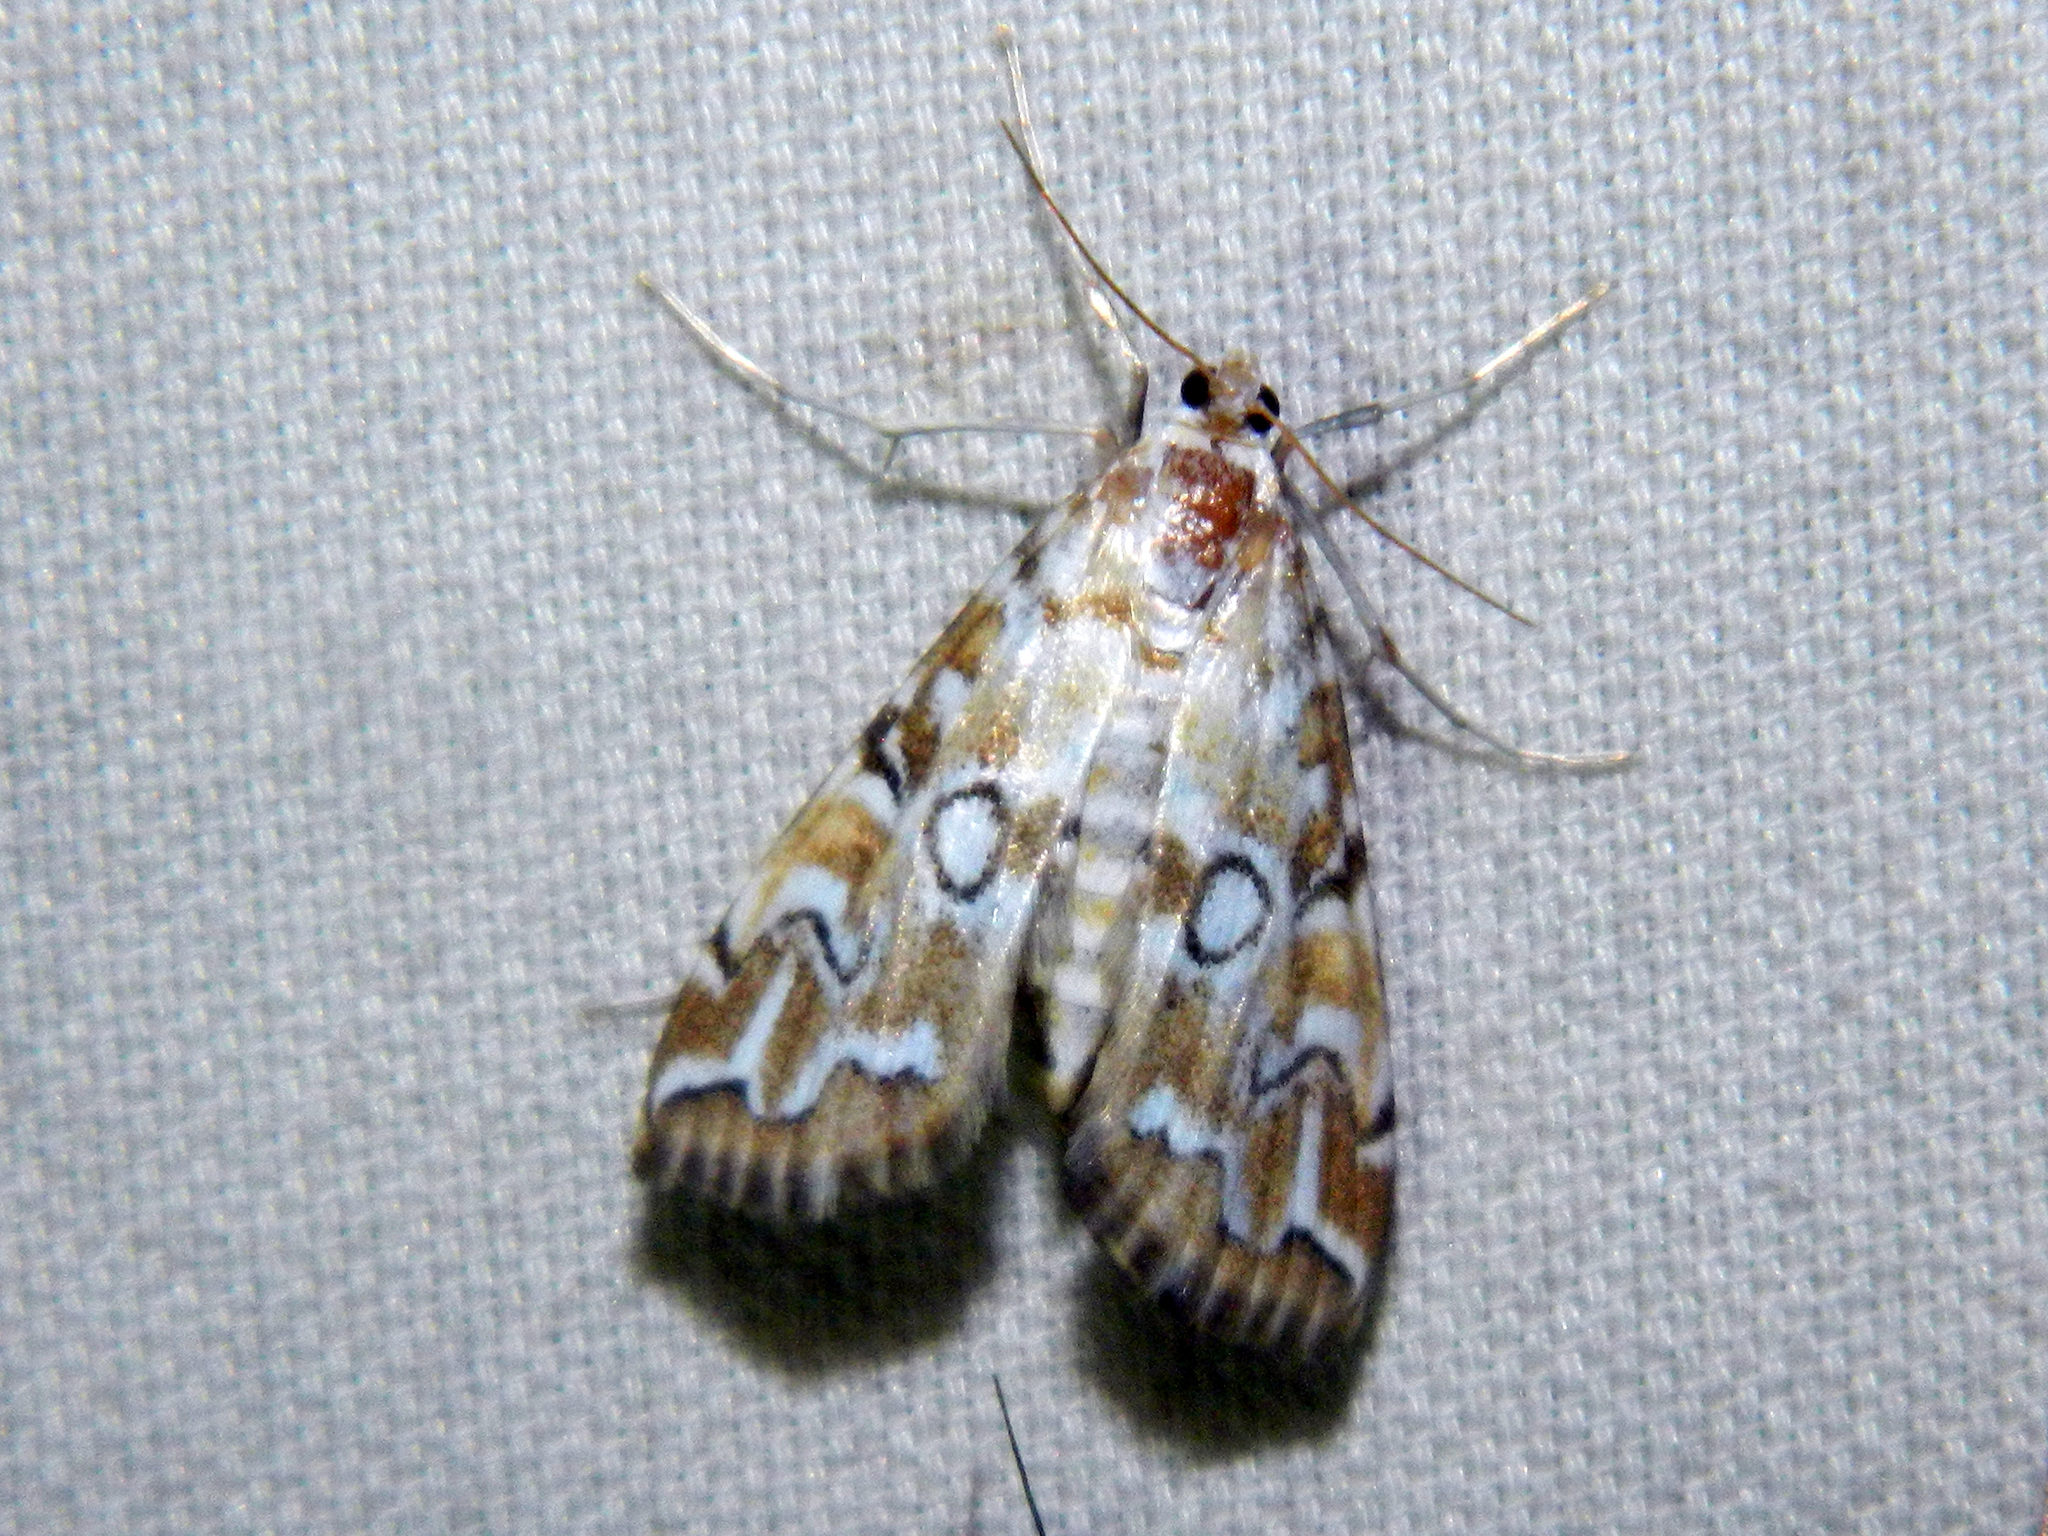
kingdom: Animalia
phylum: Arthropoda
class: Insecta
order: Lepidoptera
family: Crambidae
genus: Elophila
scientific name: Elophila icciusalis
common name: Pondside pyralid moth
